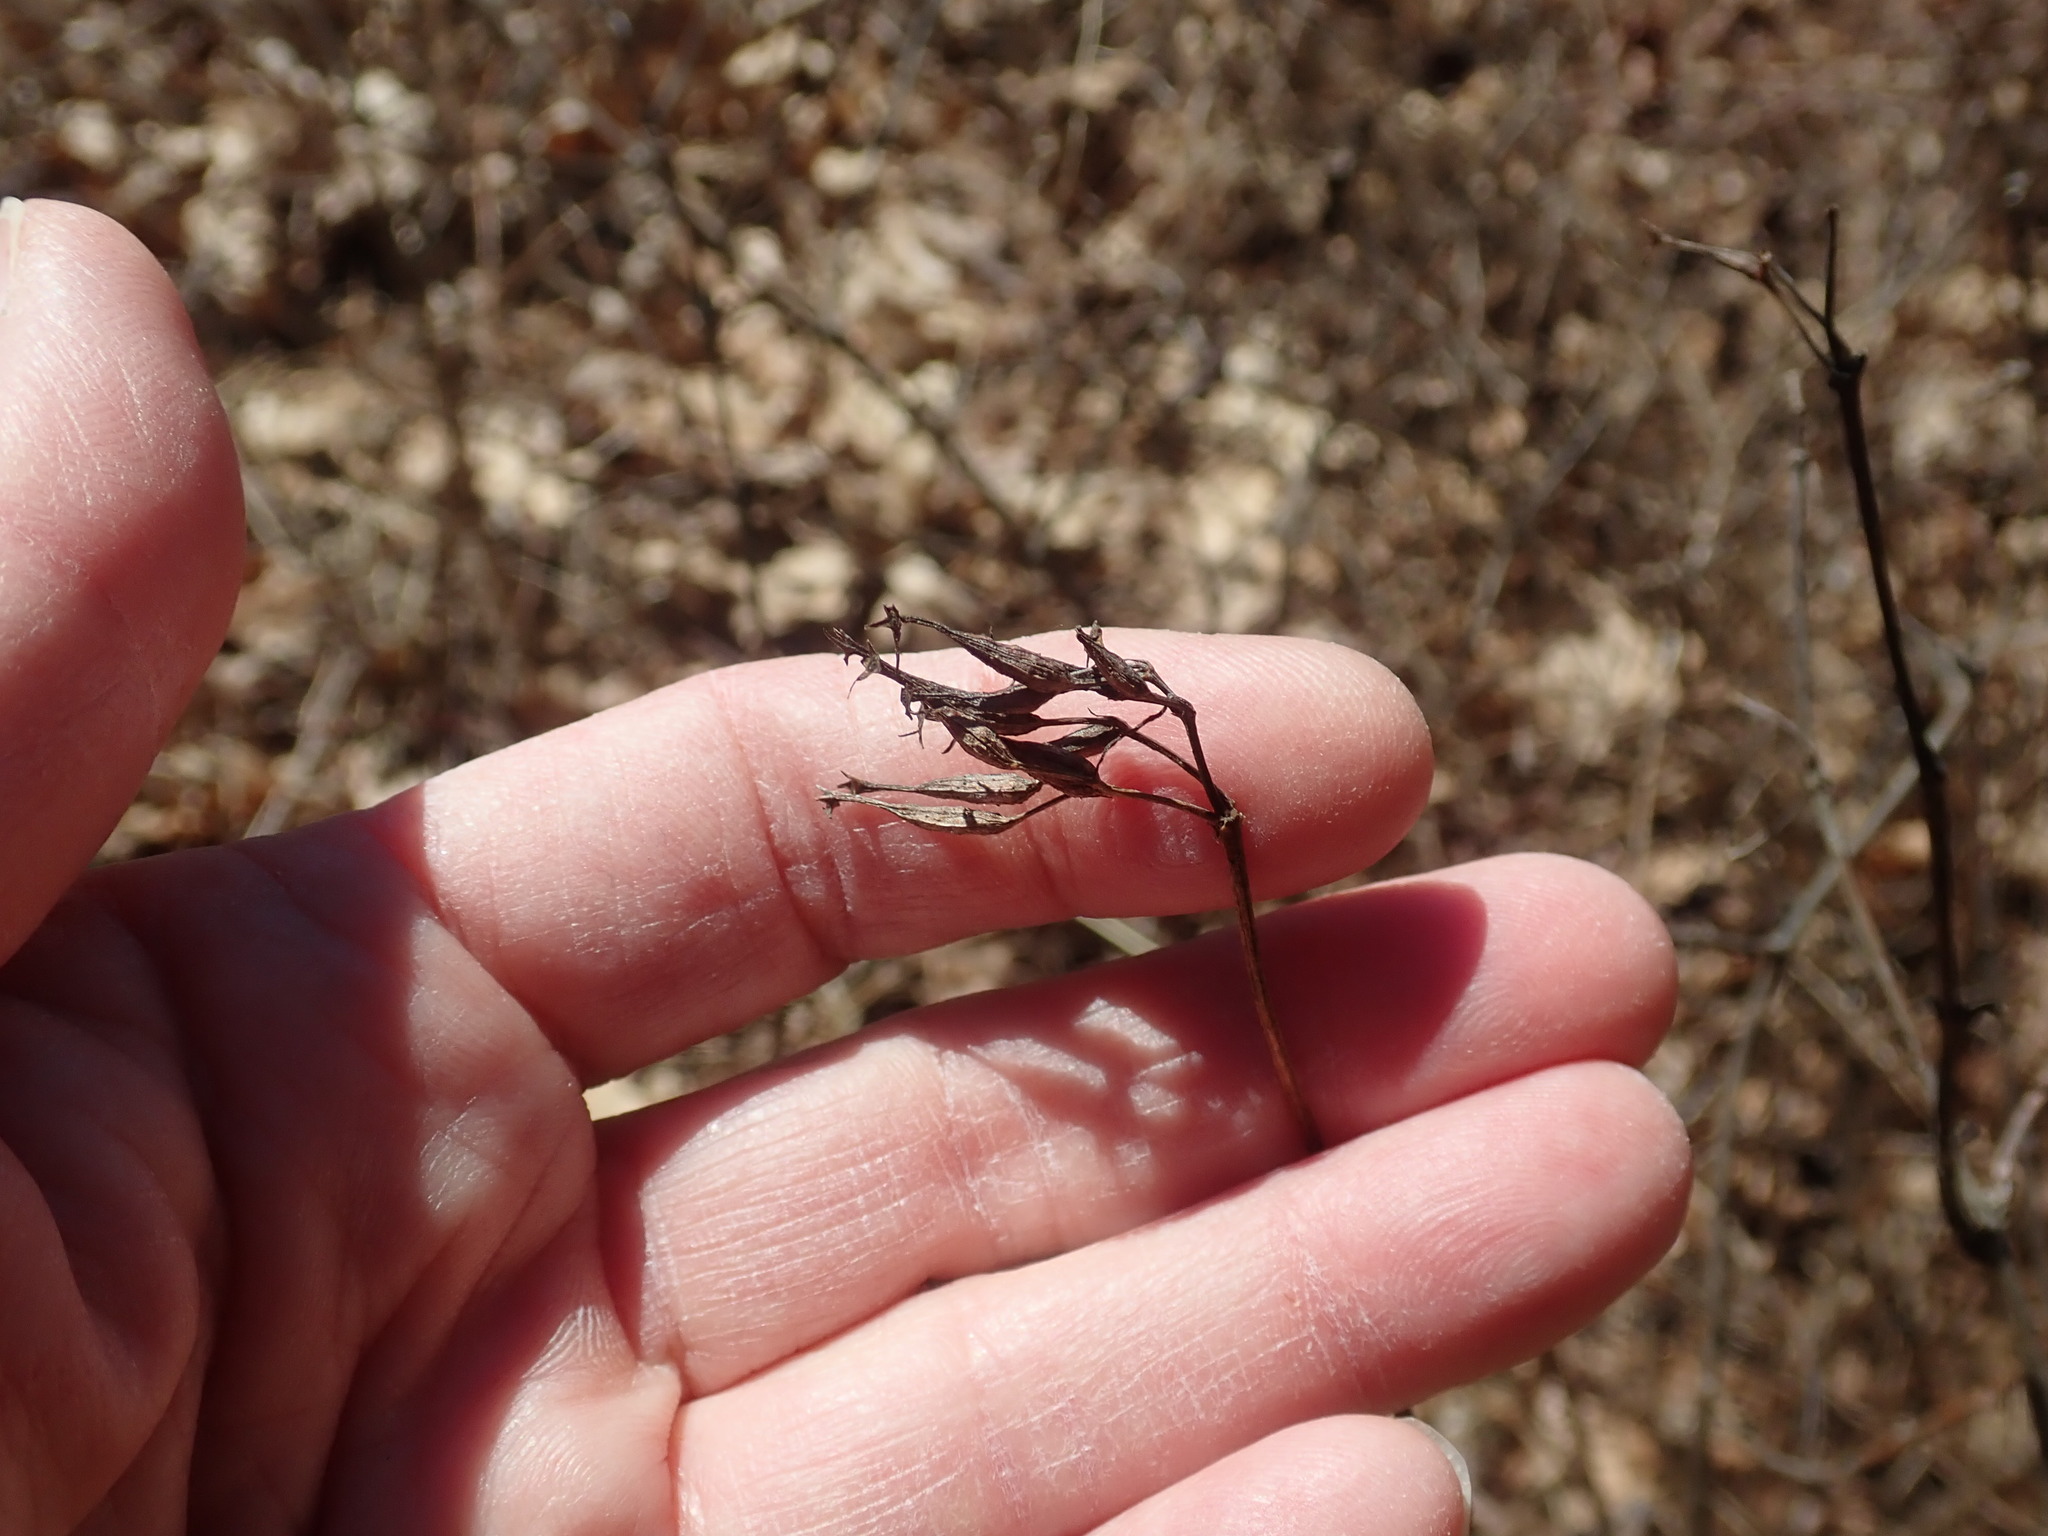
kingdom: Plantae
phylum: Tracheophyta
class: Magnoliopsida
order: Dipsacales
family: Caprifoliaceae
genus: Diervilla
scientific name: Diervilla lonicera
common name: Bush-honeysuckle
